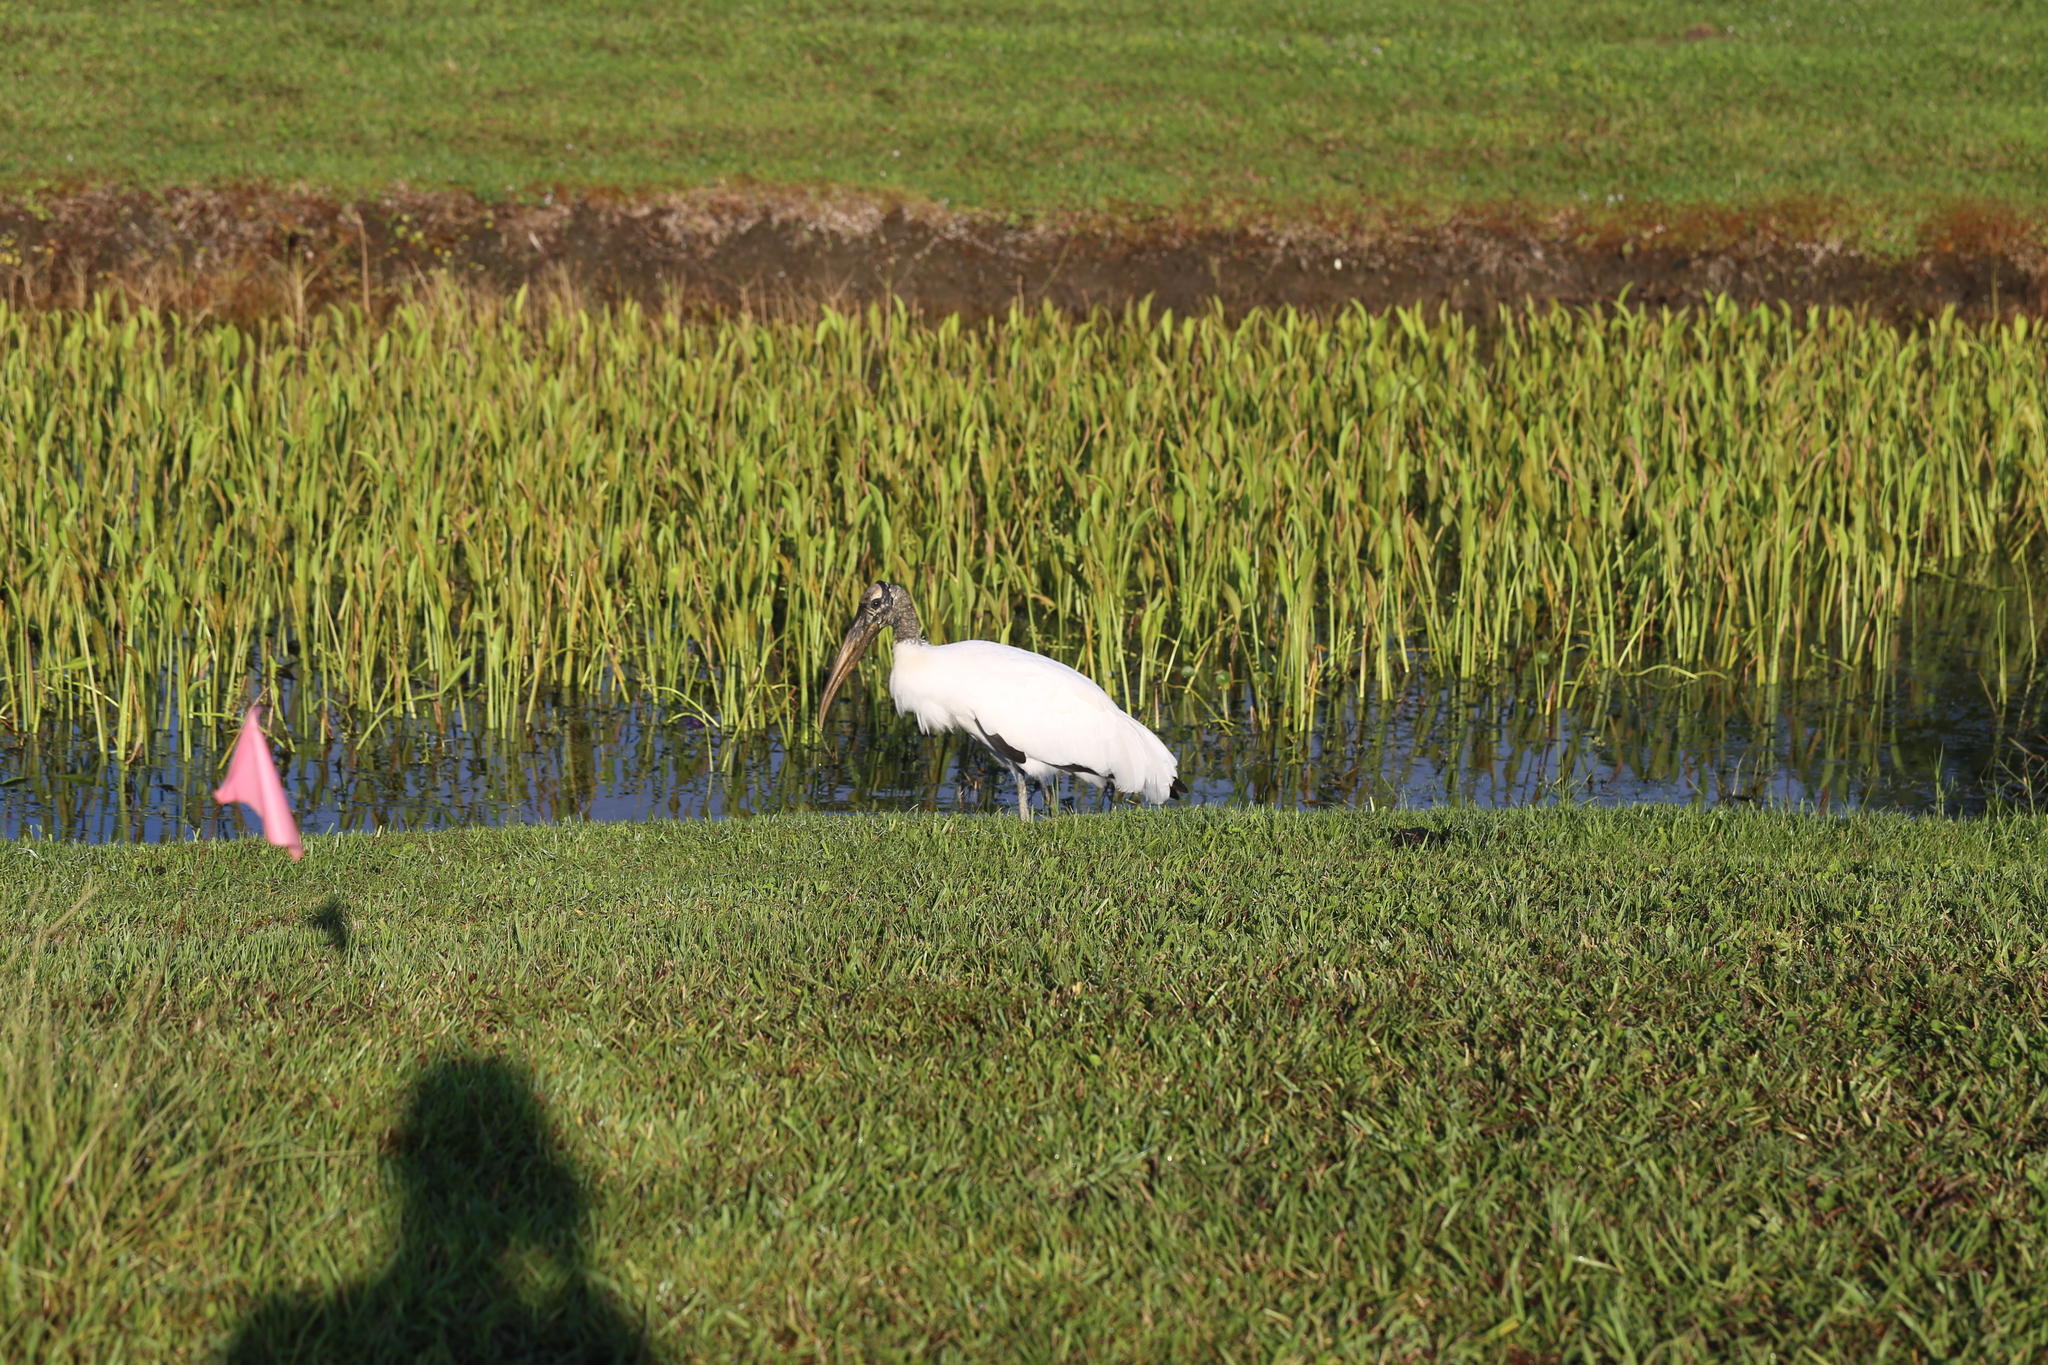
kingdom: Animalia
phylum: Chordata
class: Aves
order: Ciconiiformes
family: Ciconiidae
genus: Mycteria
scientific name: Mycteria americana
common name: Wood stork
